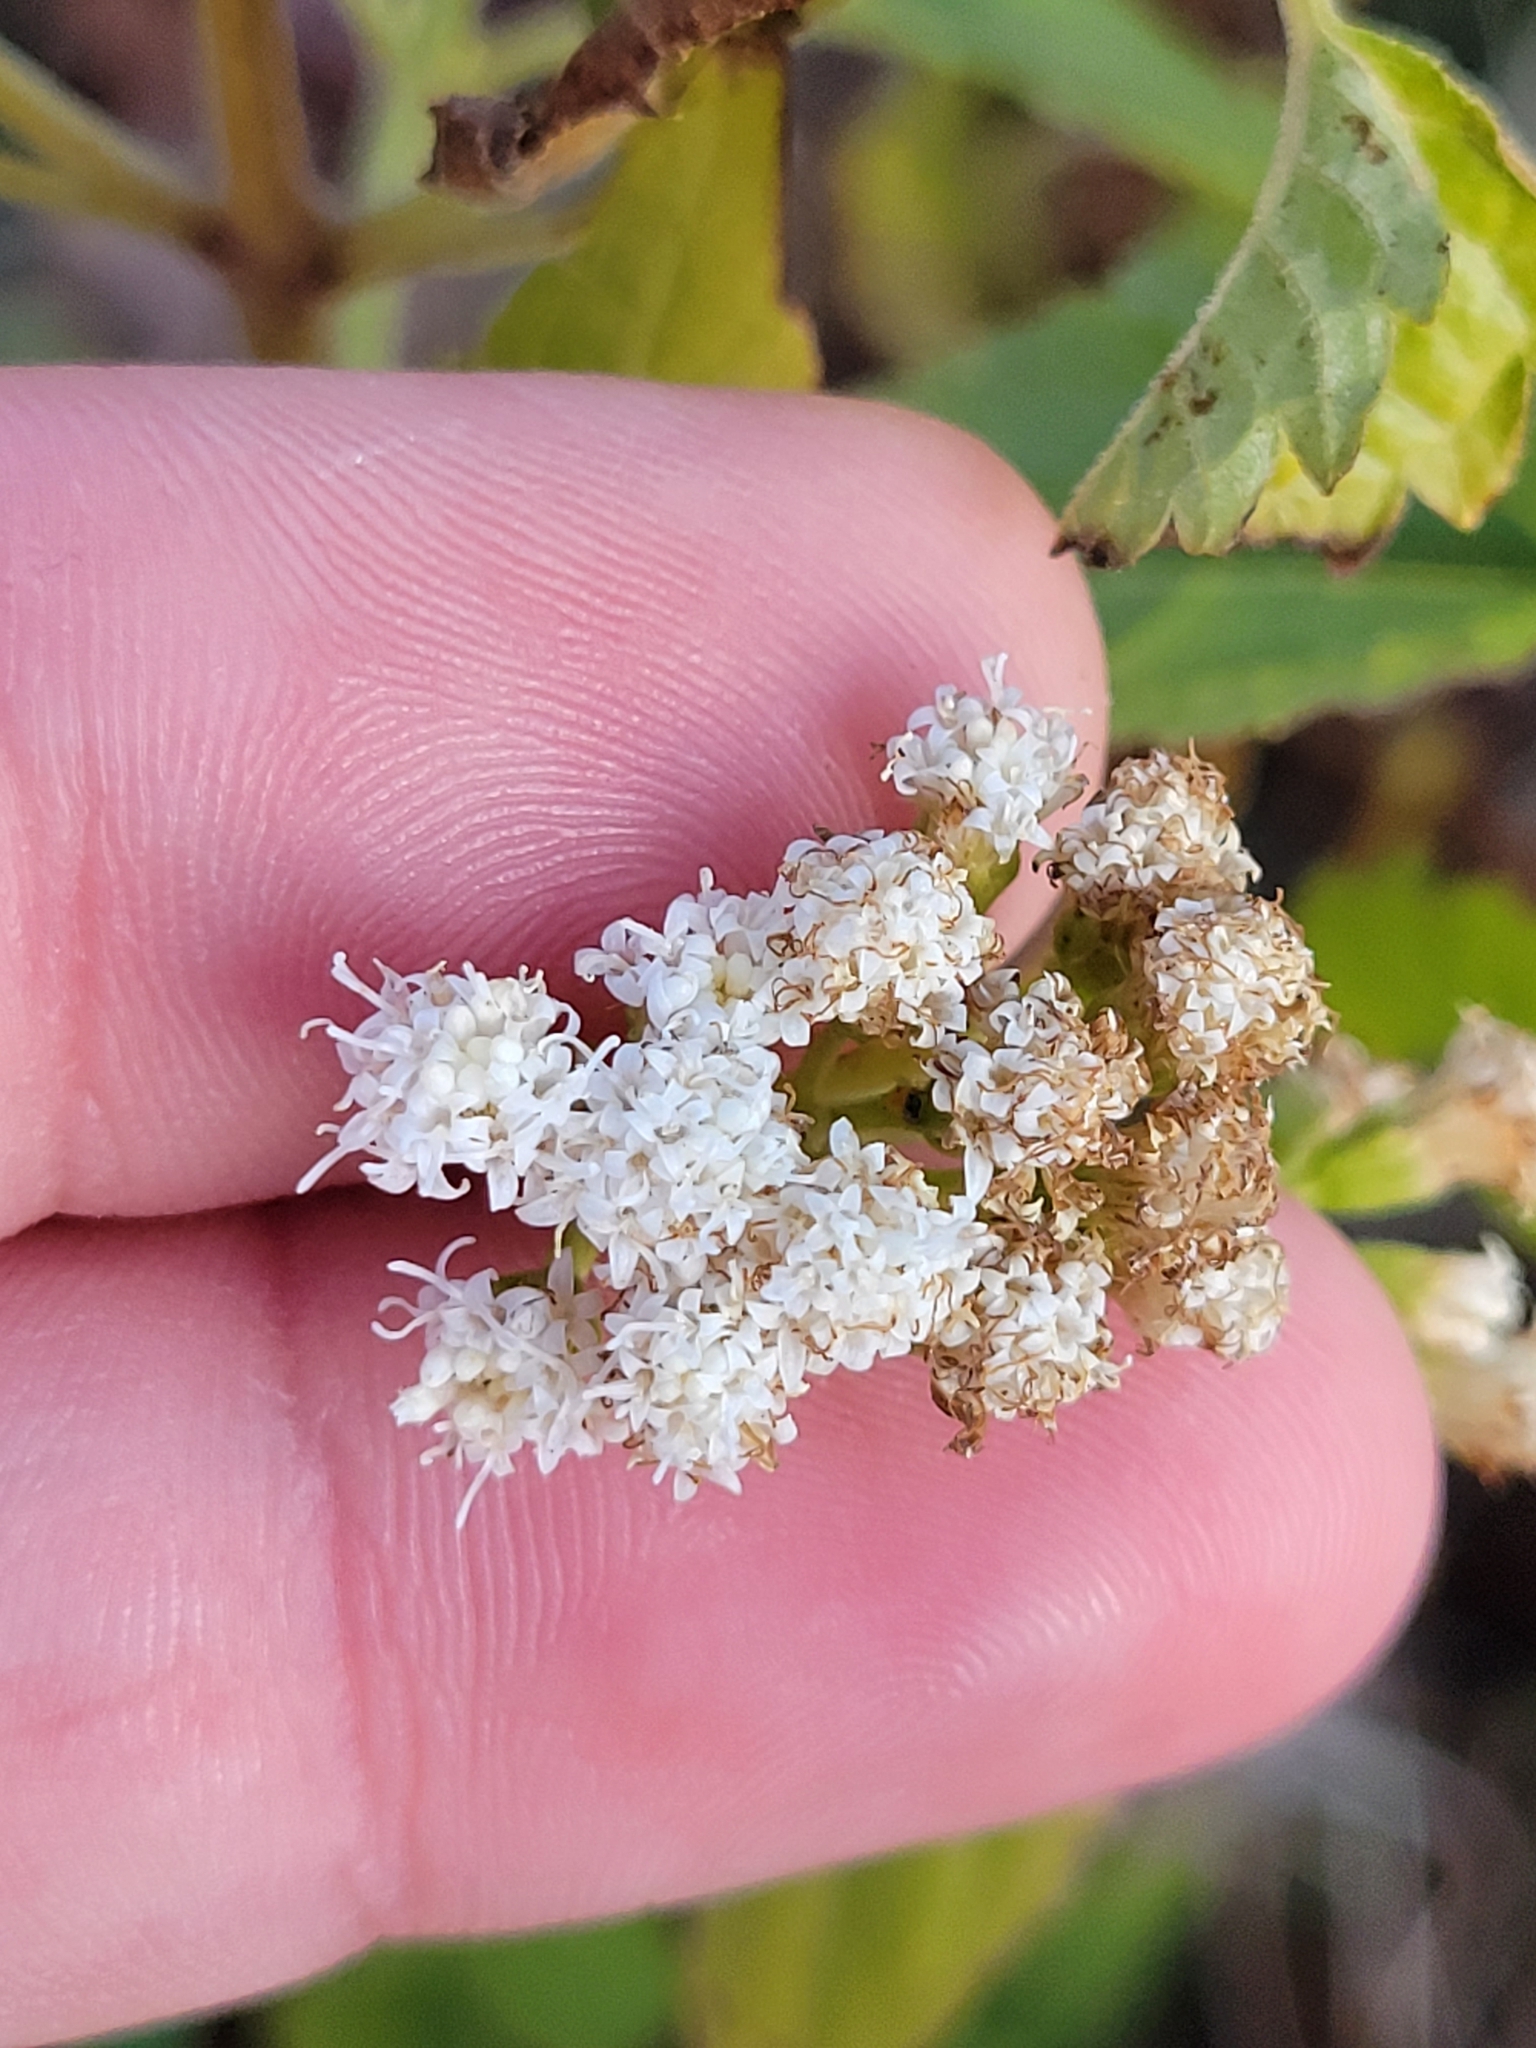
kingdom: Plantae
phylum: Tracheophyta
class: Magnoliopsida
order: Asterales
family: Asteraceae
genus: Ageratina
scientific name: Ageratina altissima
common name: White snakeroot
